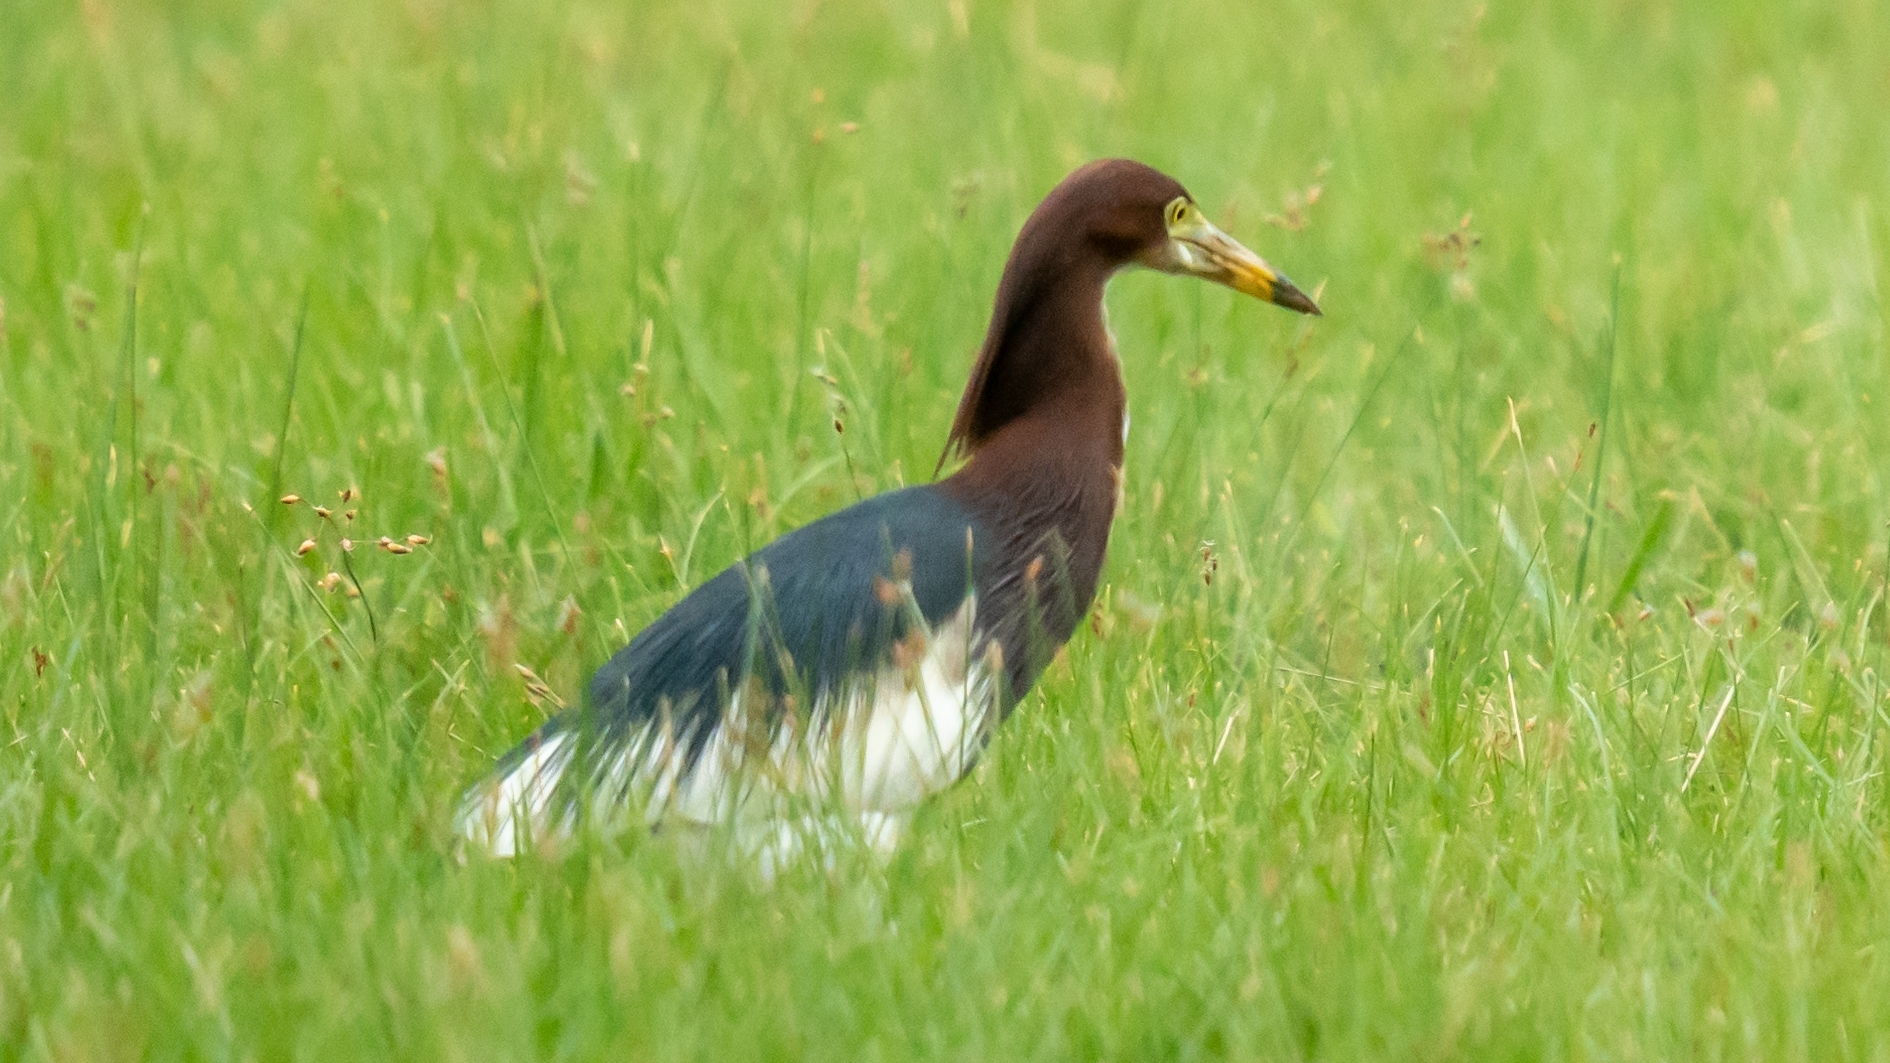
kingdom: Animalia
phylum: Chordata
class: Aves
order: Pelecaniformes
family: Ardeidae
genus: Ardeola
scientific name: Ardeola bacchus
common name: Chinese pond heron
